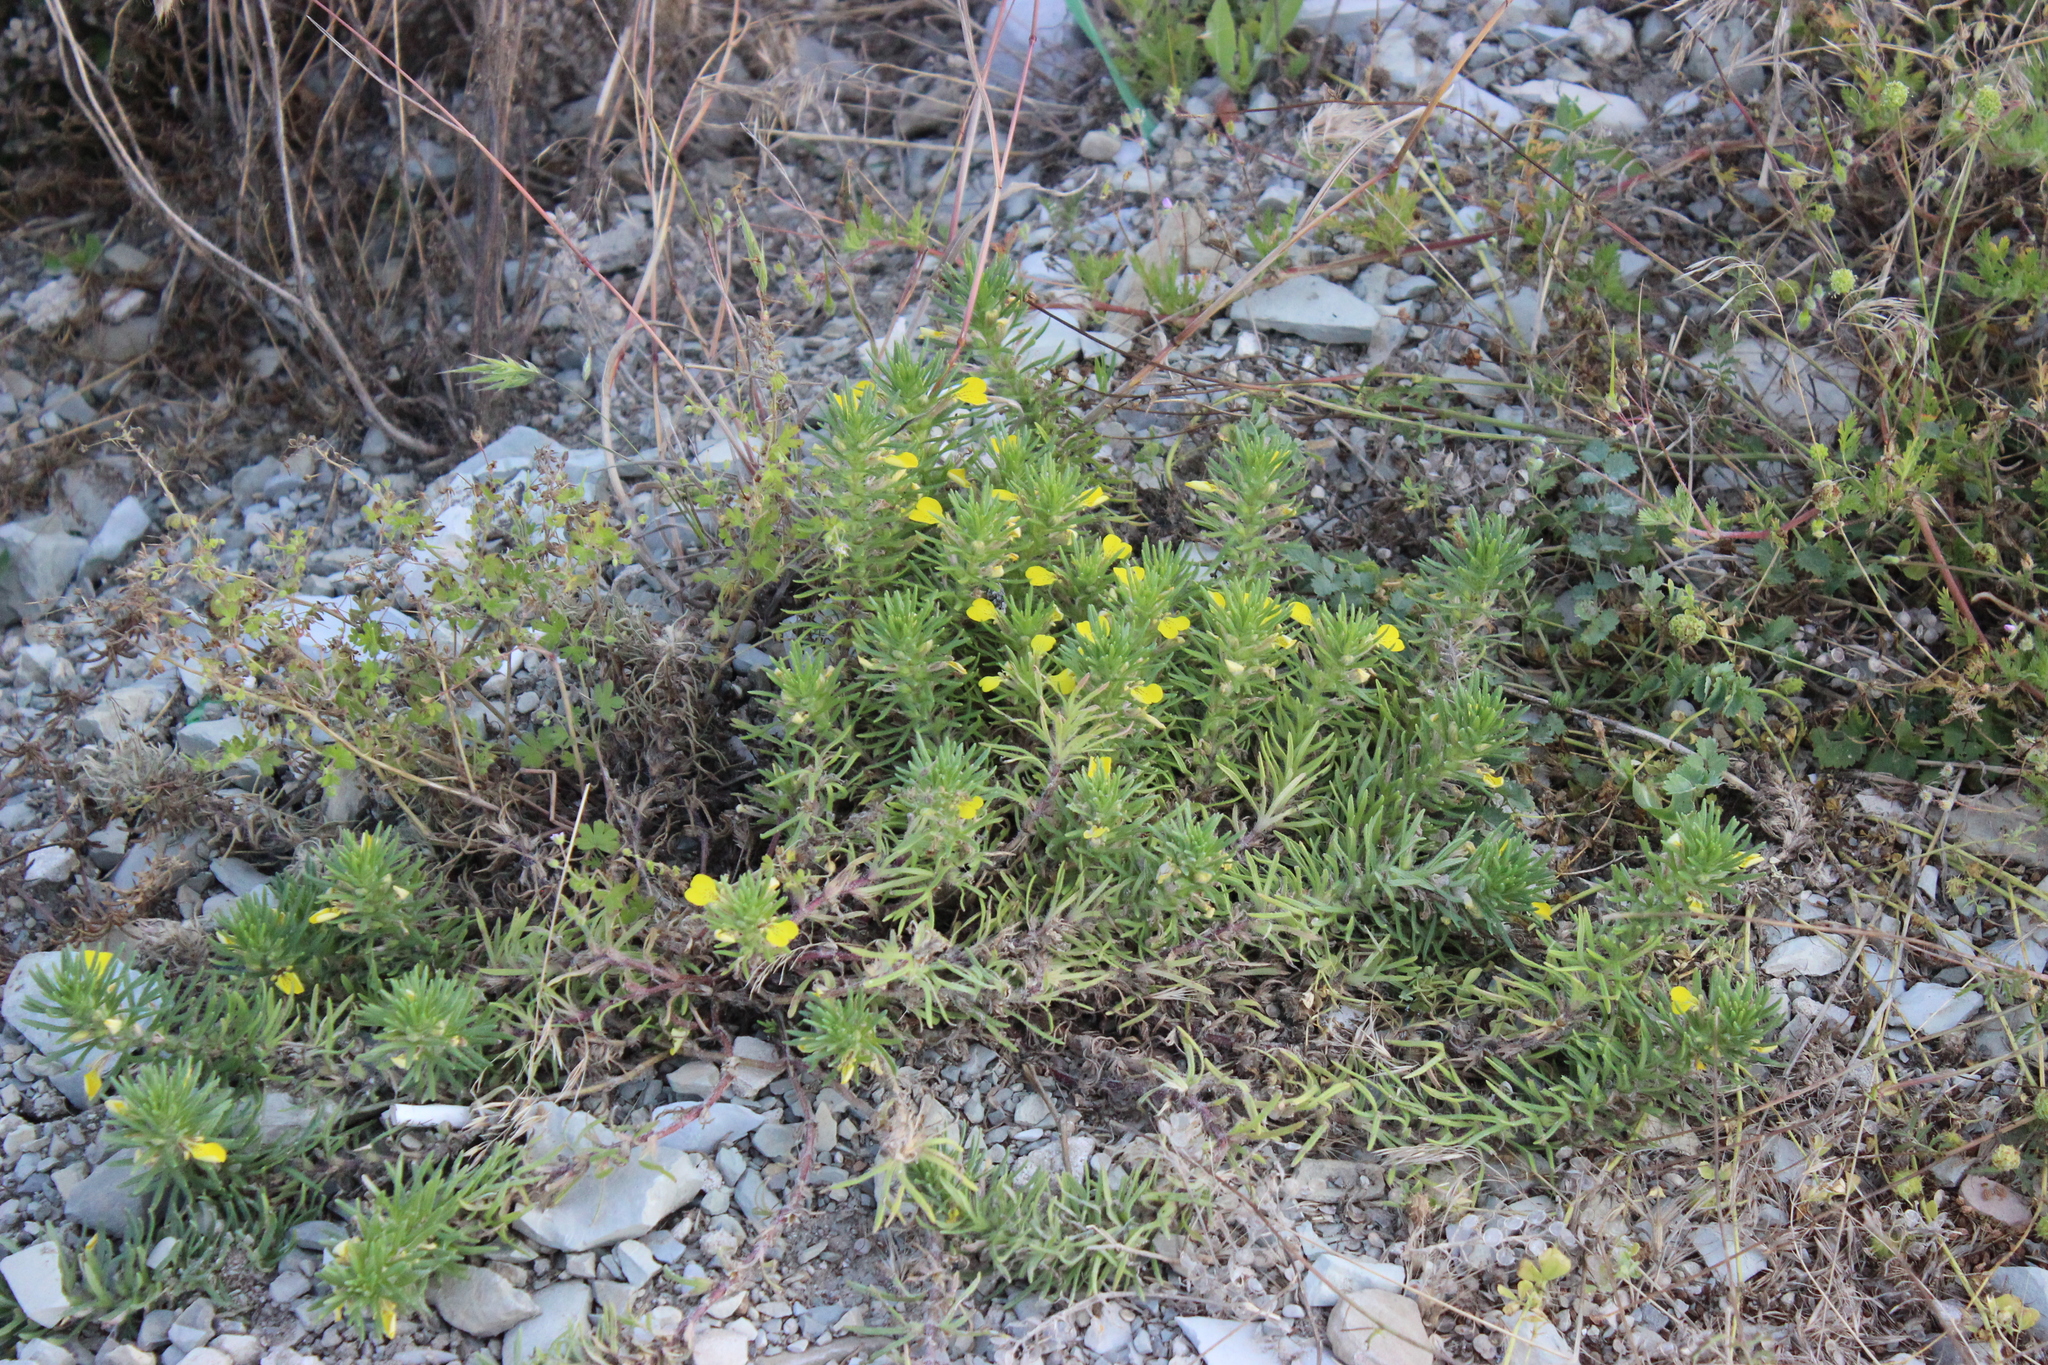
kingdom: Plantae
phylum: Tracheophyta
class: Magnoliopsida
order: Lamiales
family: Lamiaceae
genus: Ajuga
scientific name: Ajuga chamaepitys
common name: Ground-pine
